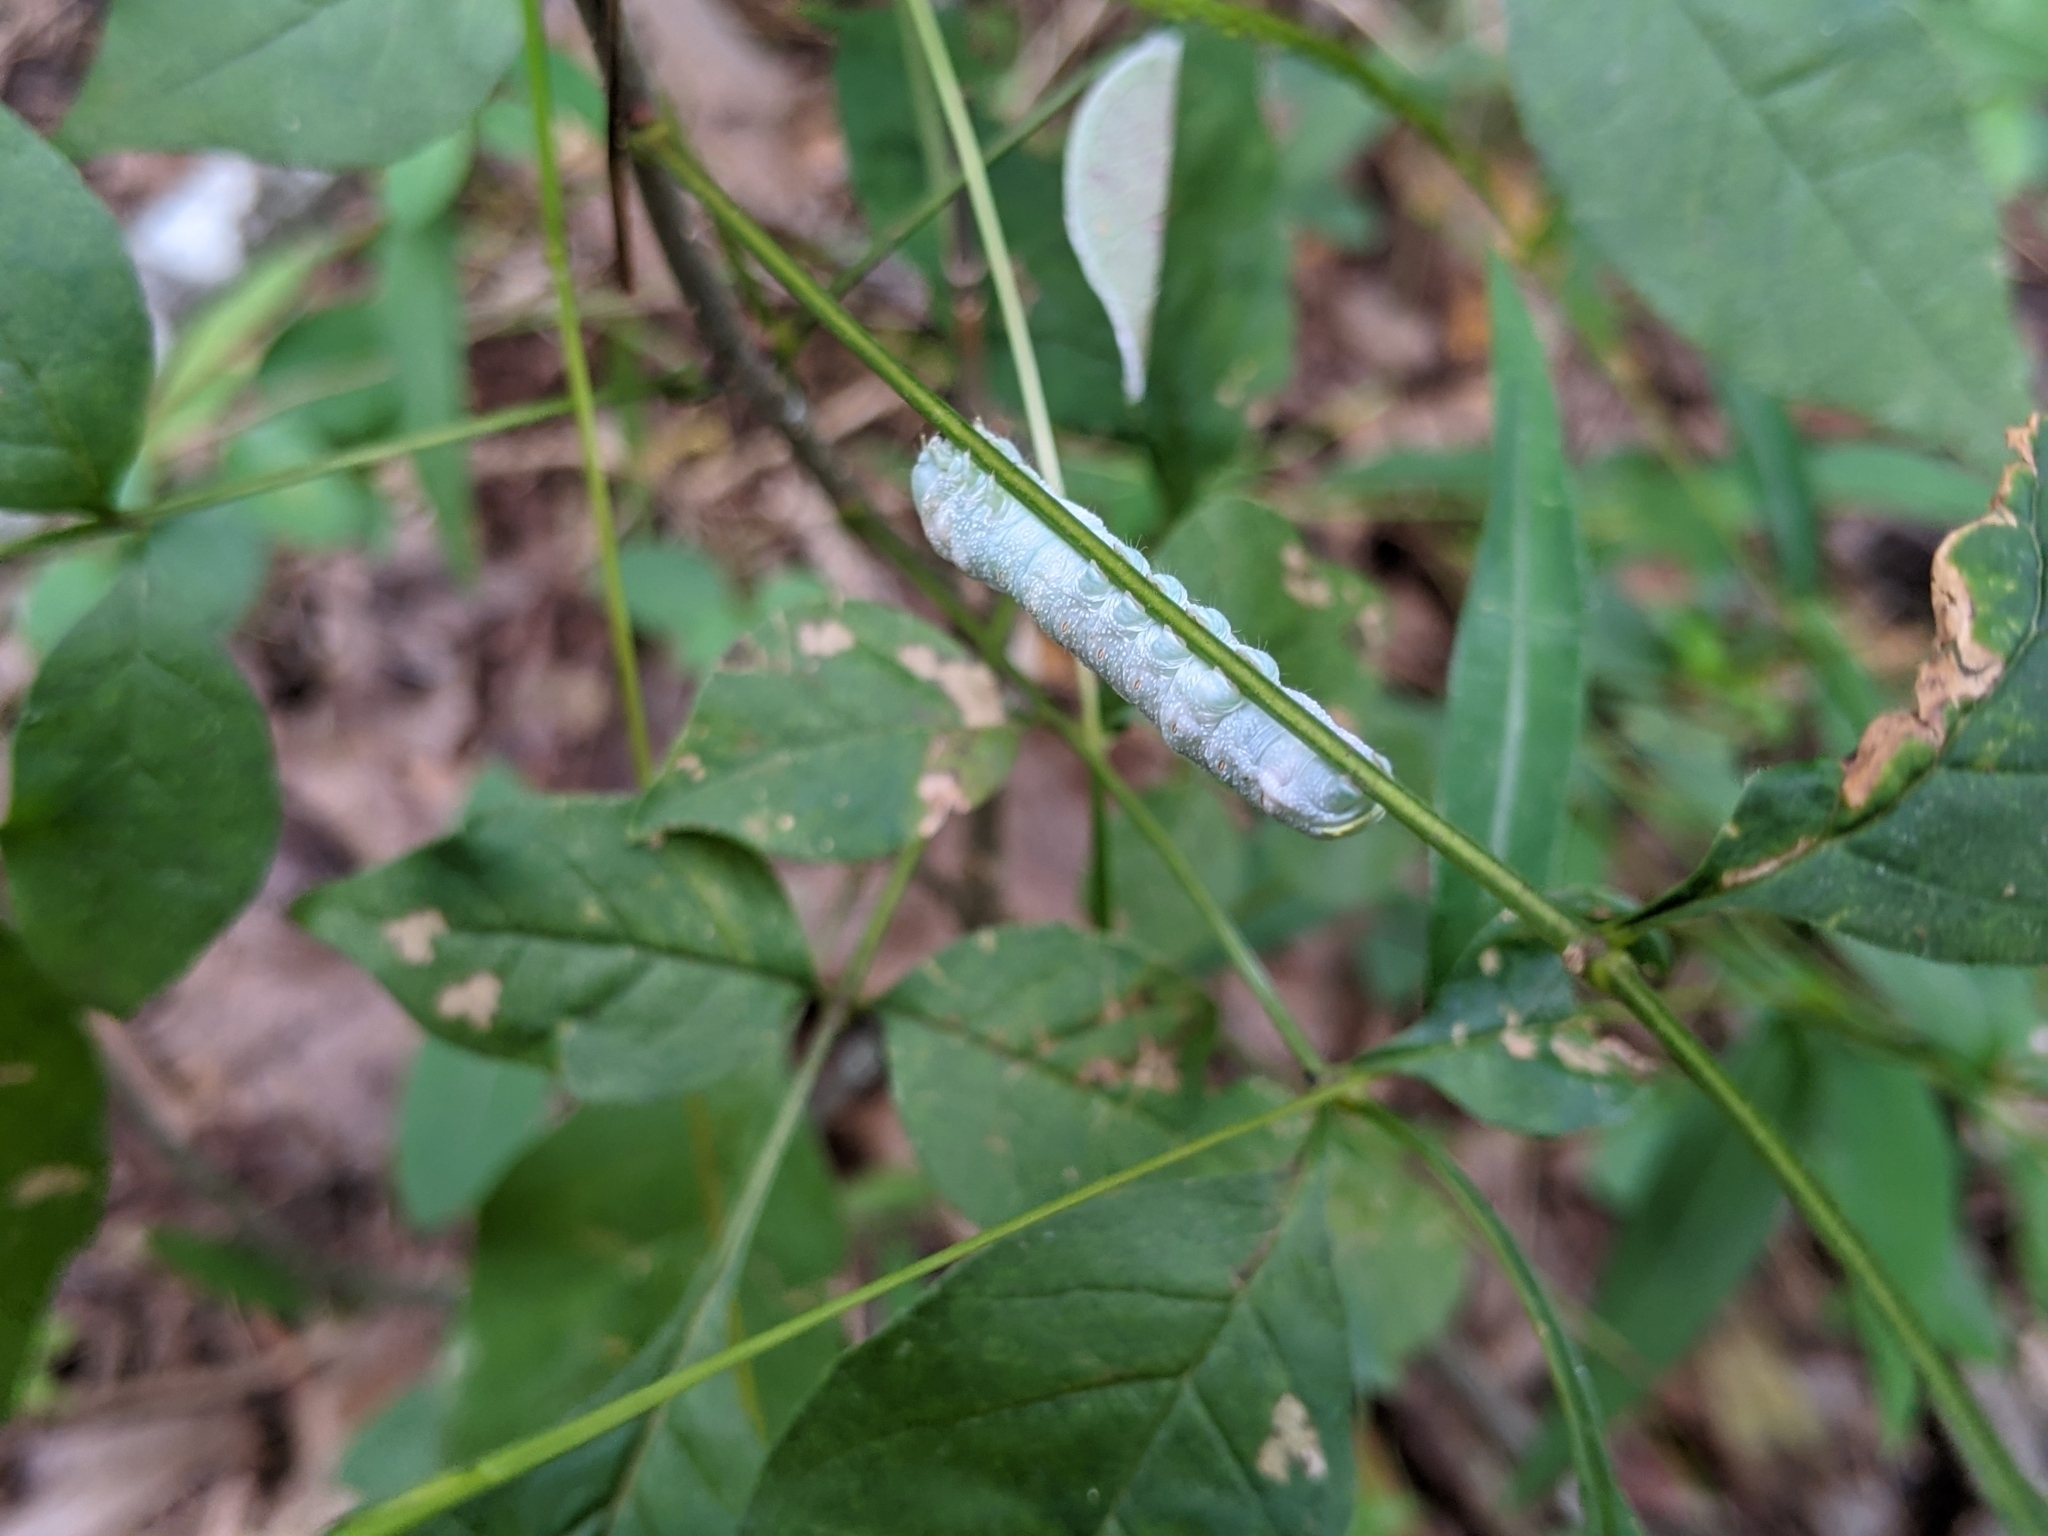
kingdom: Animalia
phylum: Arthropoda
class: Insecta
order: Lepidoptera
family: Notodontidae
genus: Nadata
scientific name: Nadata gibbosa
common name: White-dotted prominent
